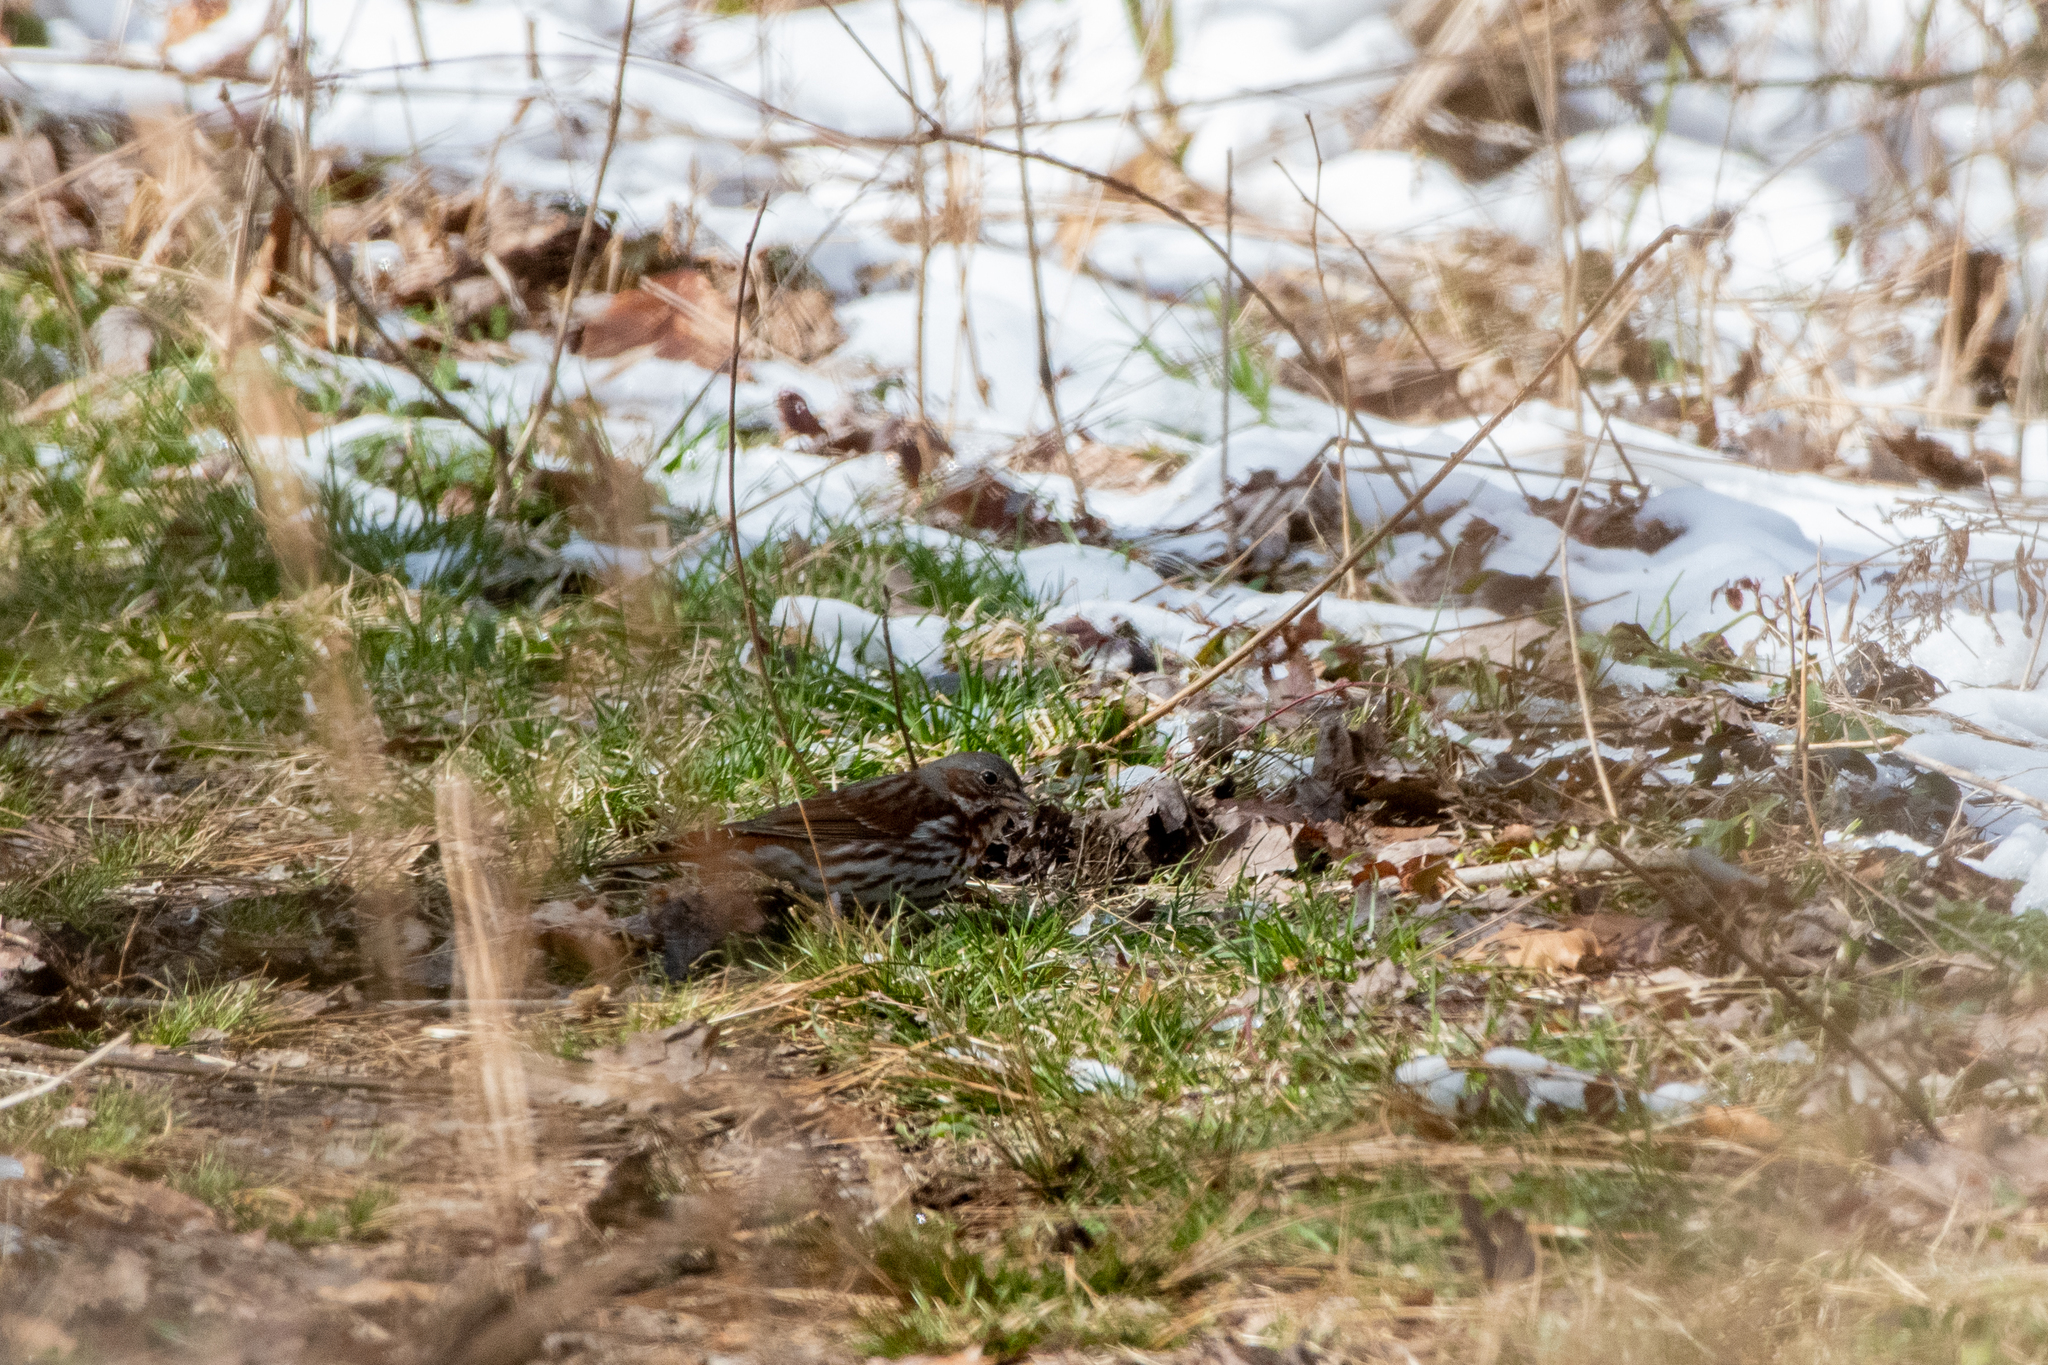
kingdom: Animalia
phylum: Chordata
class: Aves
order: Passeriformes
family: Passerellidae
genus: Passerella
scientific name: Passerella iliaca
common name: Fox sparrow
